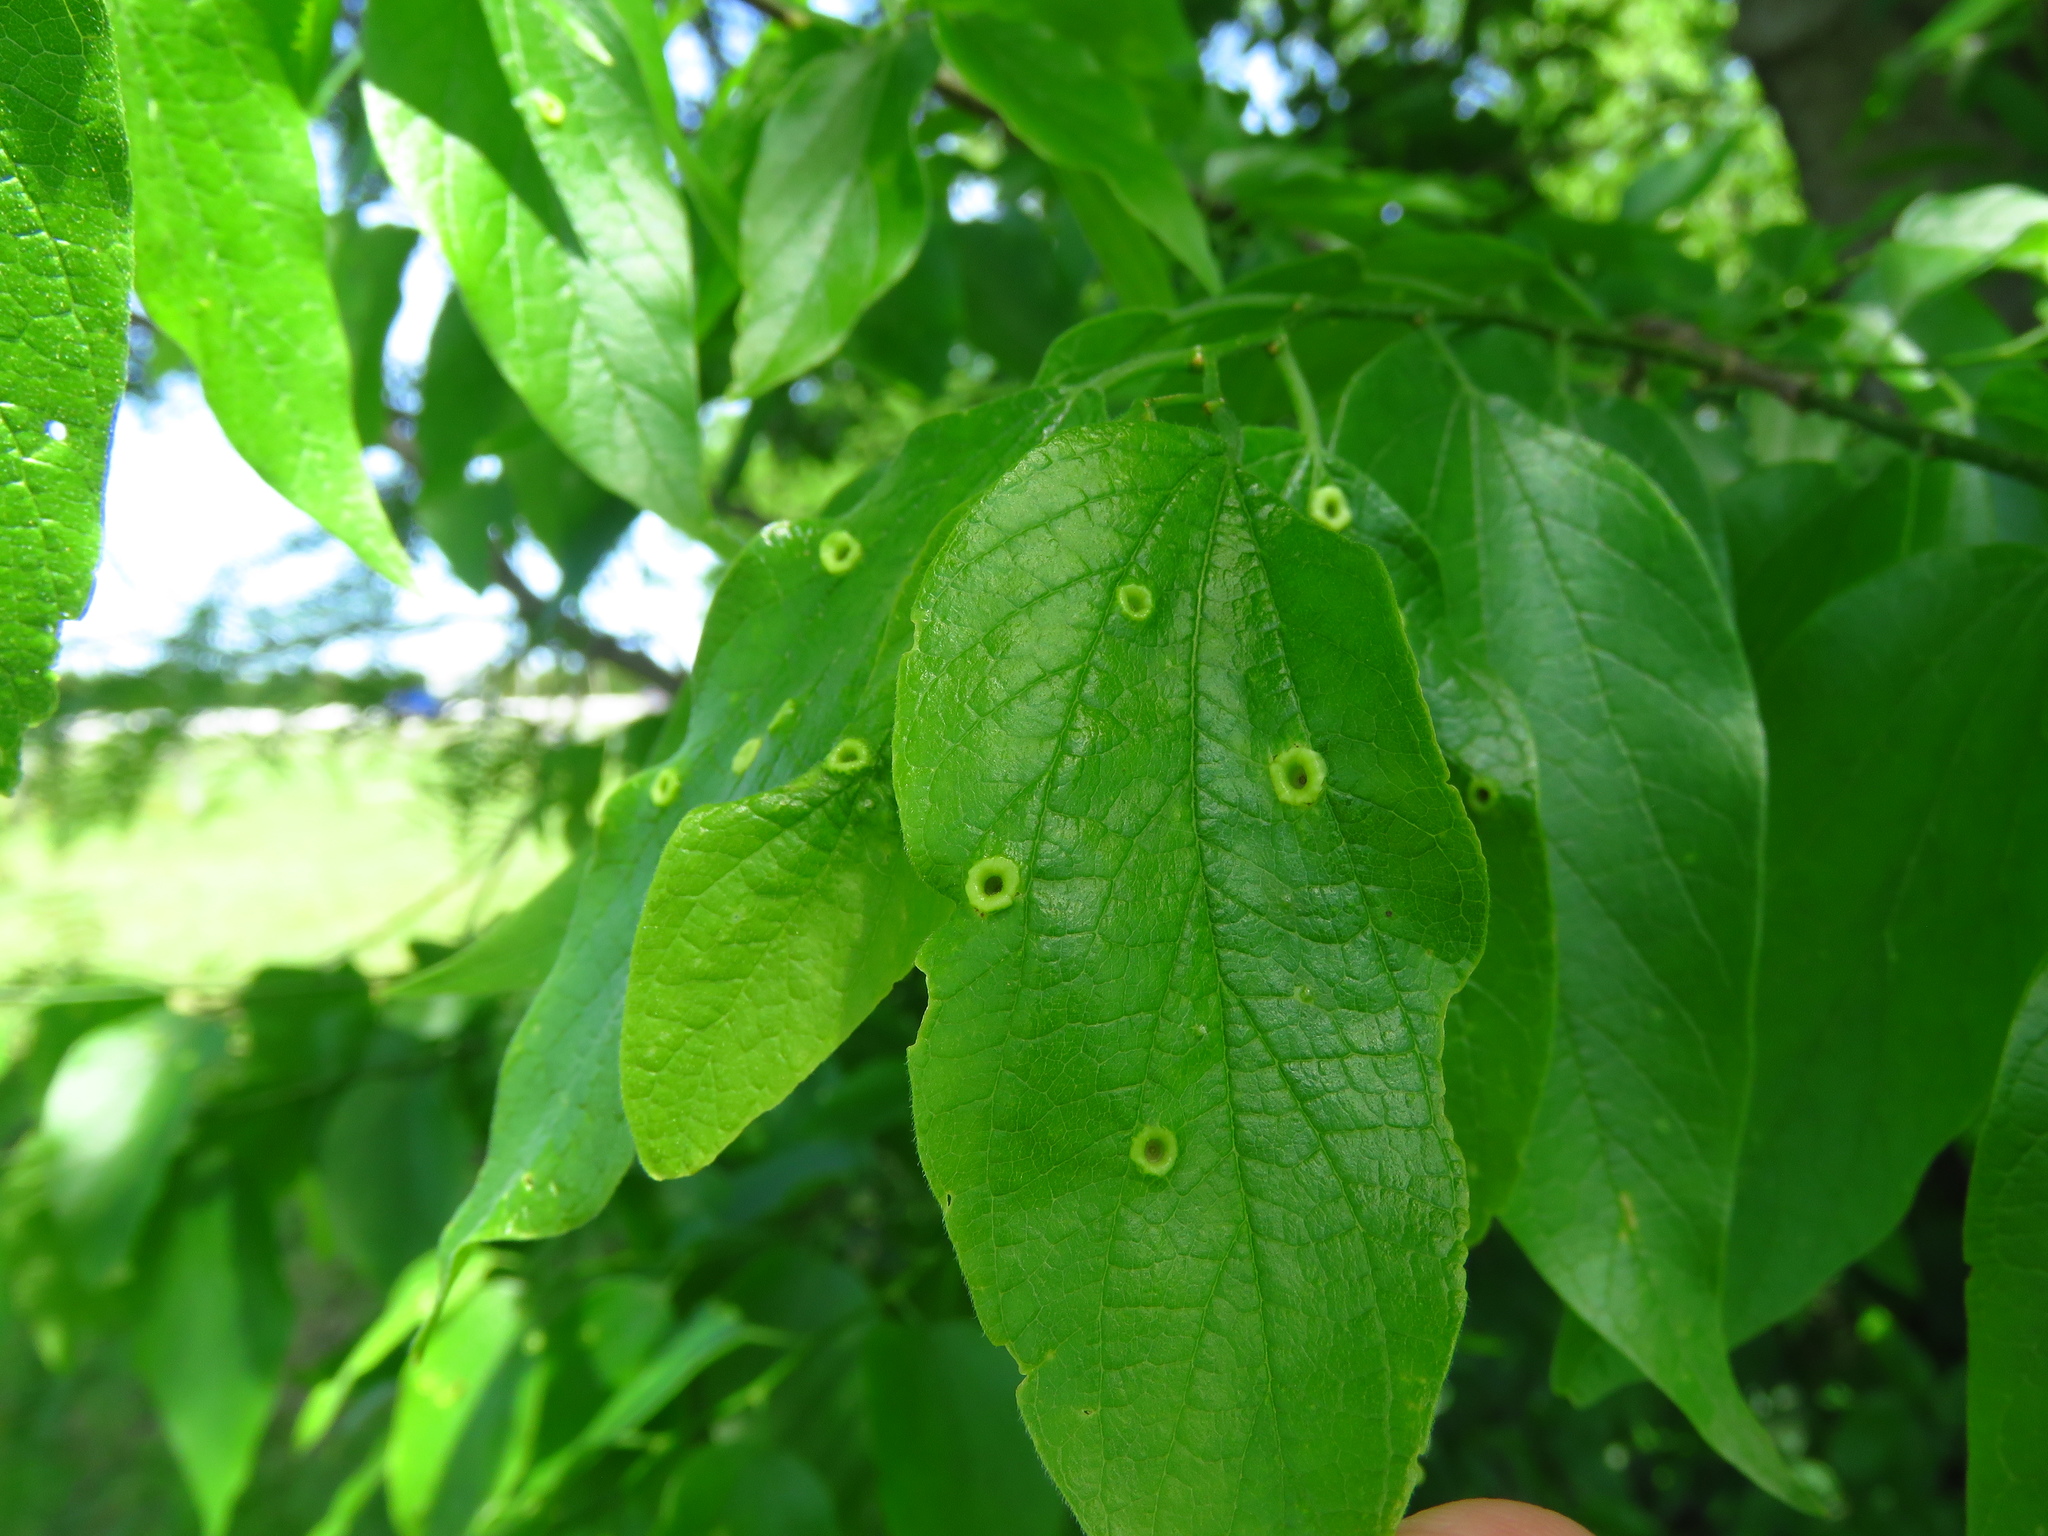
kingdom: Animalia
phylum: Arthropoda
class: Insecta
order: Hemiptera
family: Aphalaridae
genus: Pachypsylla
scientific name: Pachypsylla celtidismamma
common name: Hackberry nipplegall psyllid
